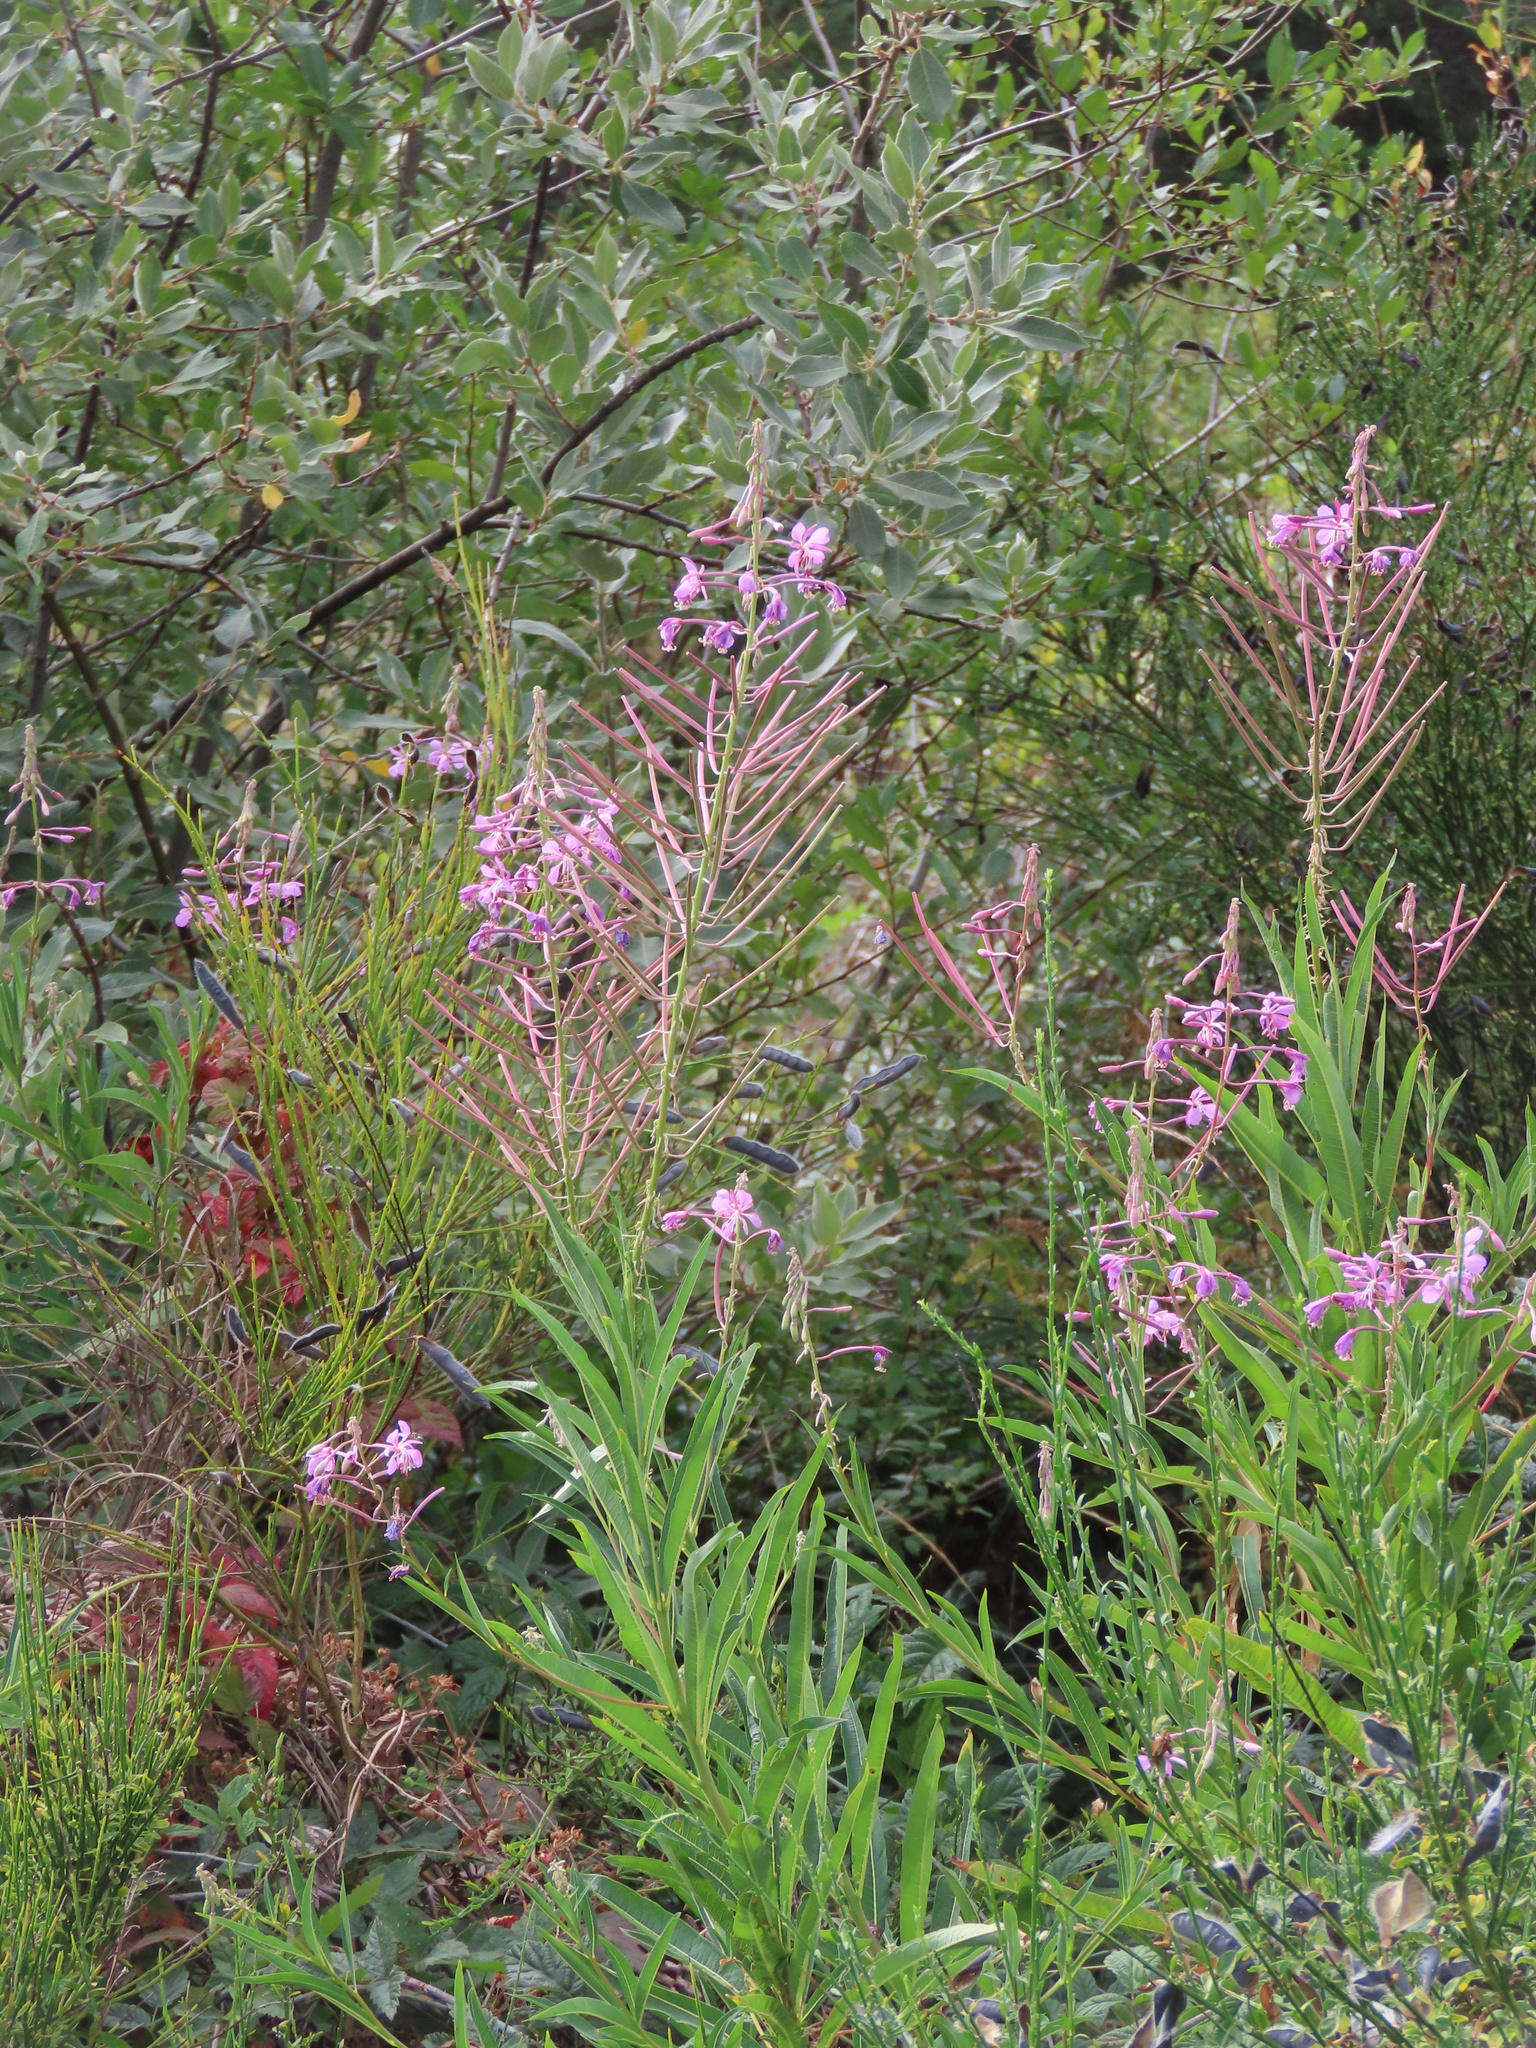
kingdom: Plantae
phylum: Tracheophyta
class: Magnoliopsida
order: Myrtales
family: Onagraceae
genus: Chamaenerion
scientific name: Chamaenerion angustifolium
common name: Fireweed
